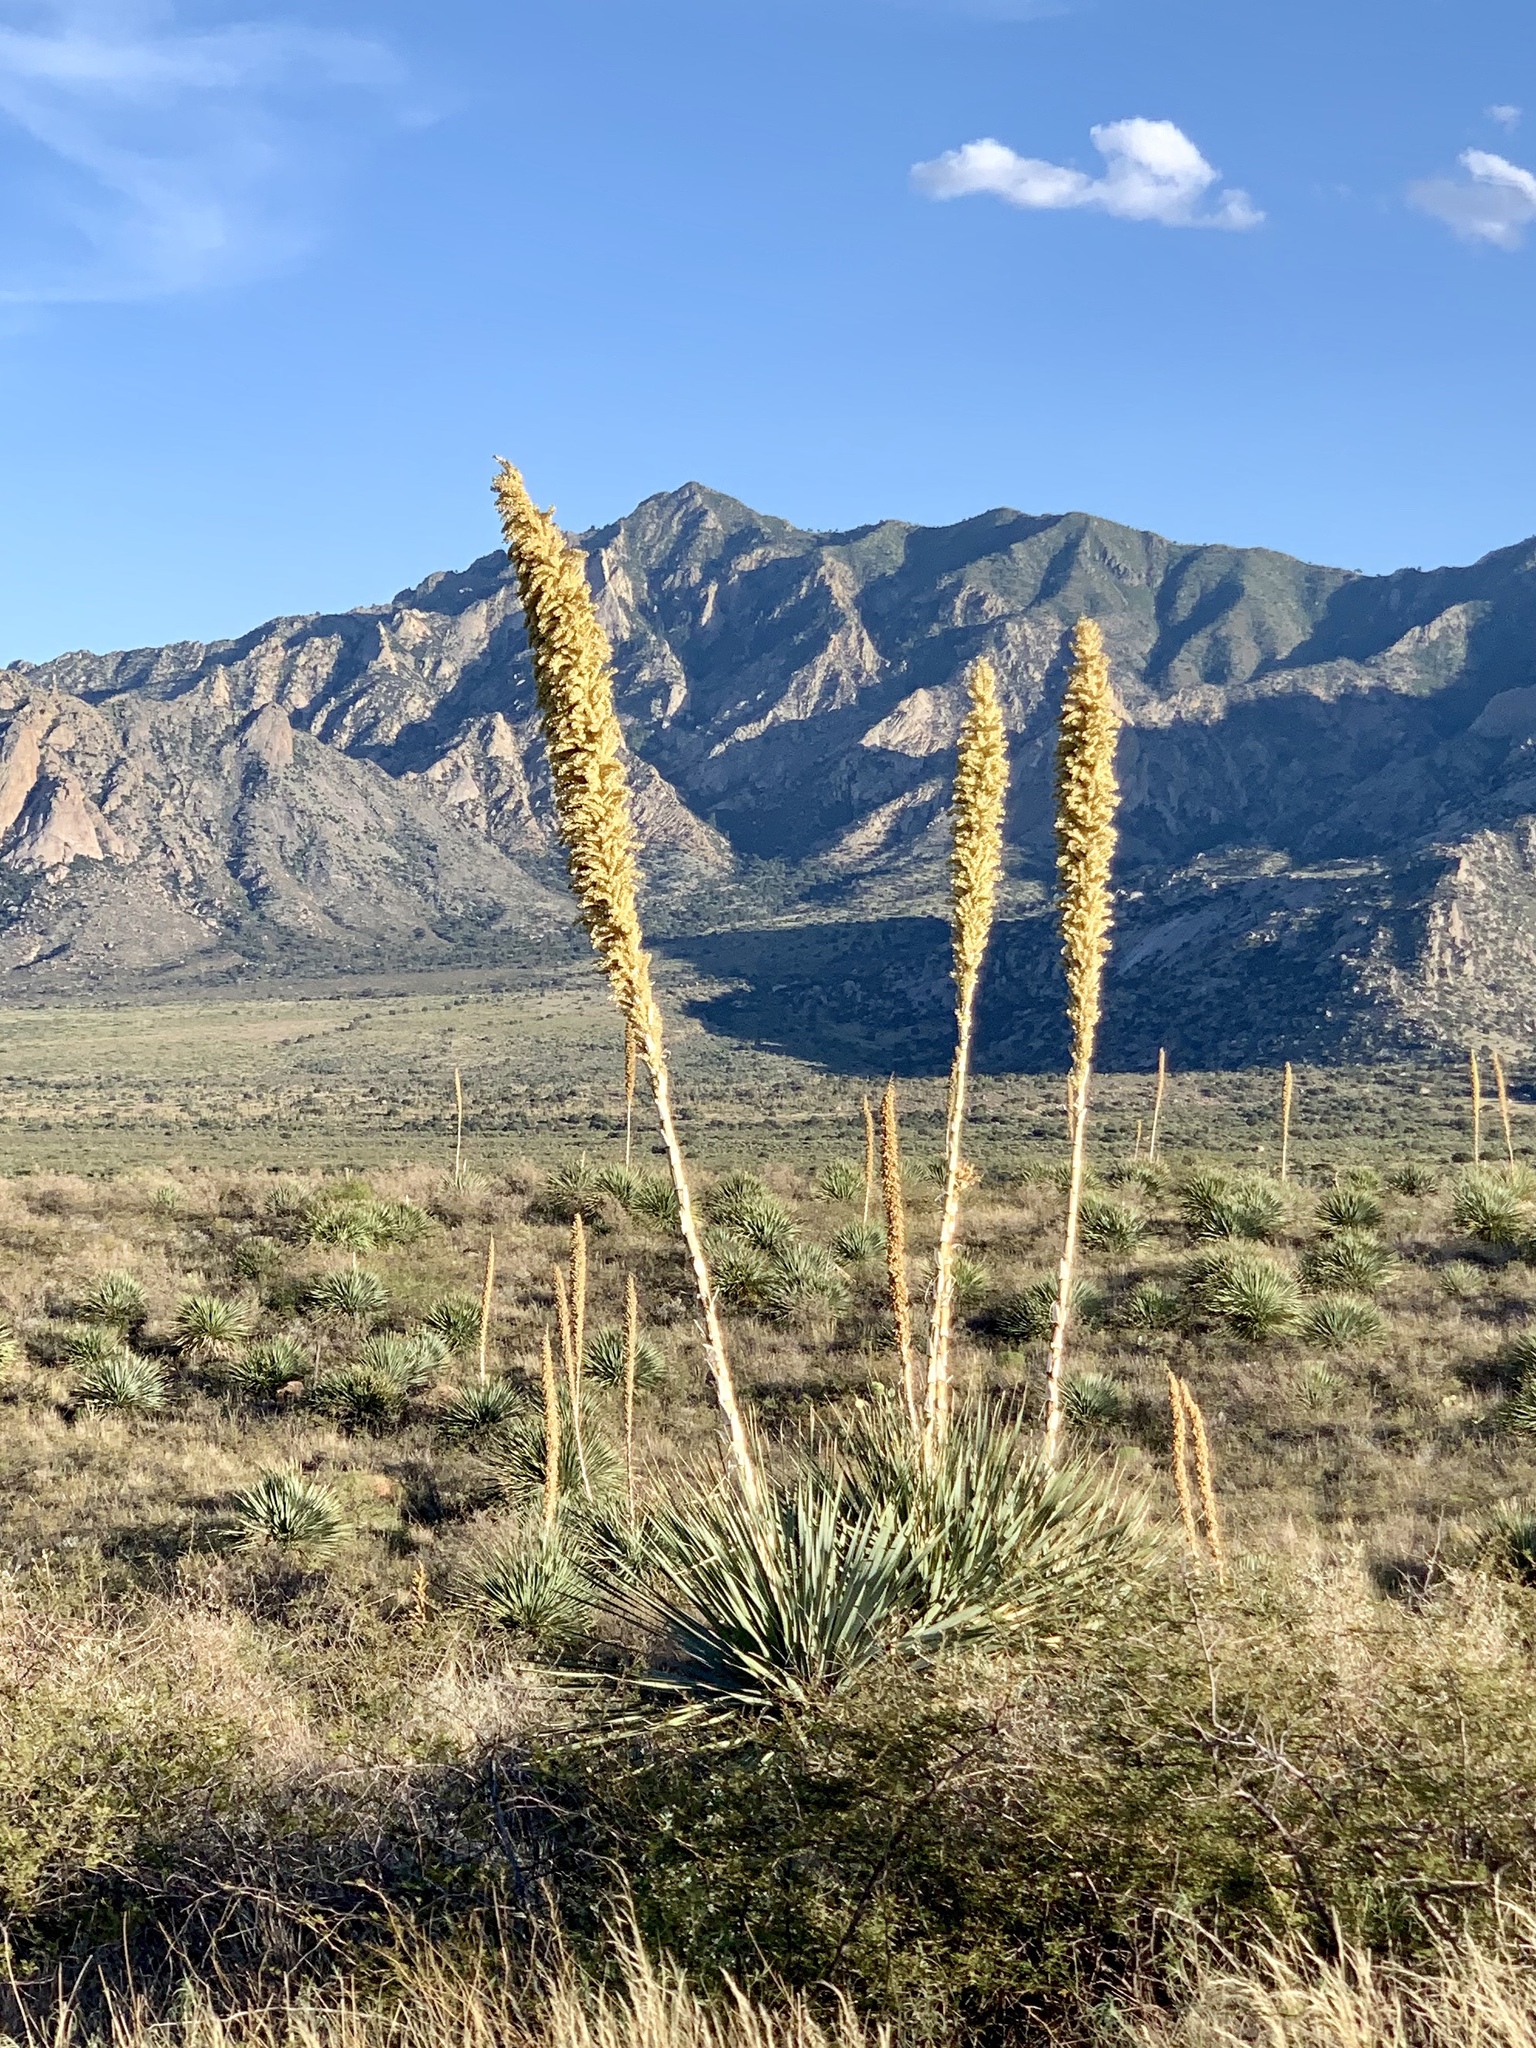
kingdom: Plantae
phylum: Tracheophyta
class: Liliopsida
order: Asparagales
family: Asparagaceae
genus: Dasylirion
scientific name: Dasylirion wheeleri
